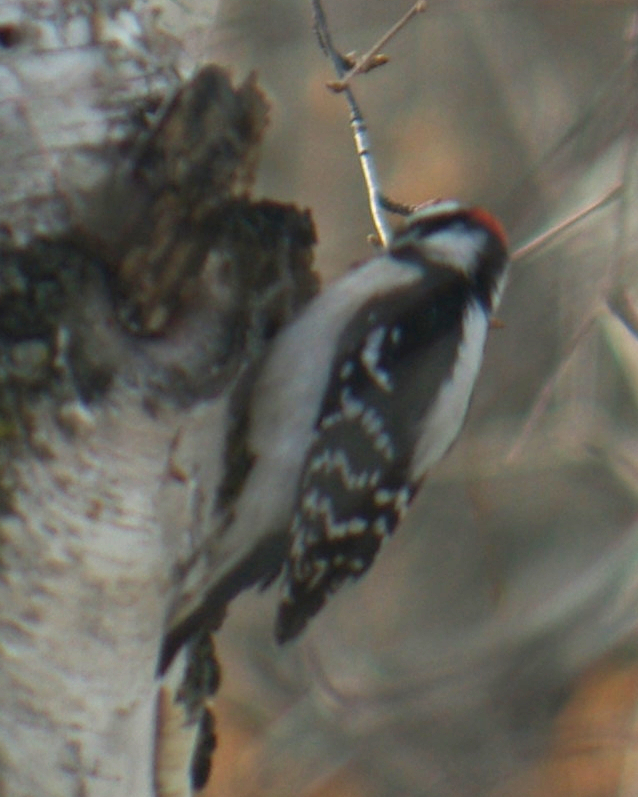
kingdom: Animalia
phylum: Chordata
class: Aves
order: Piciformes
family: Picidae
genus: Dryobates
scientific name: Dryobates pubescens
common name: Downy woodpecker
